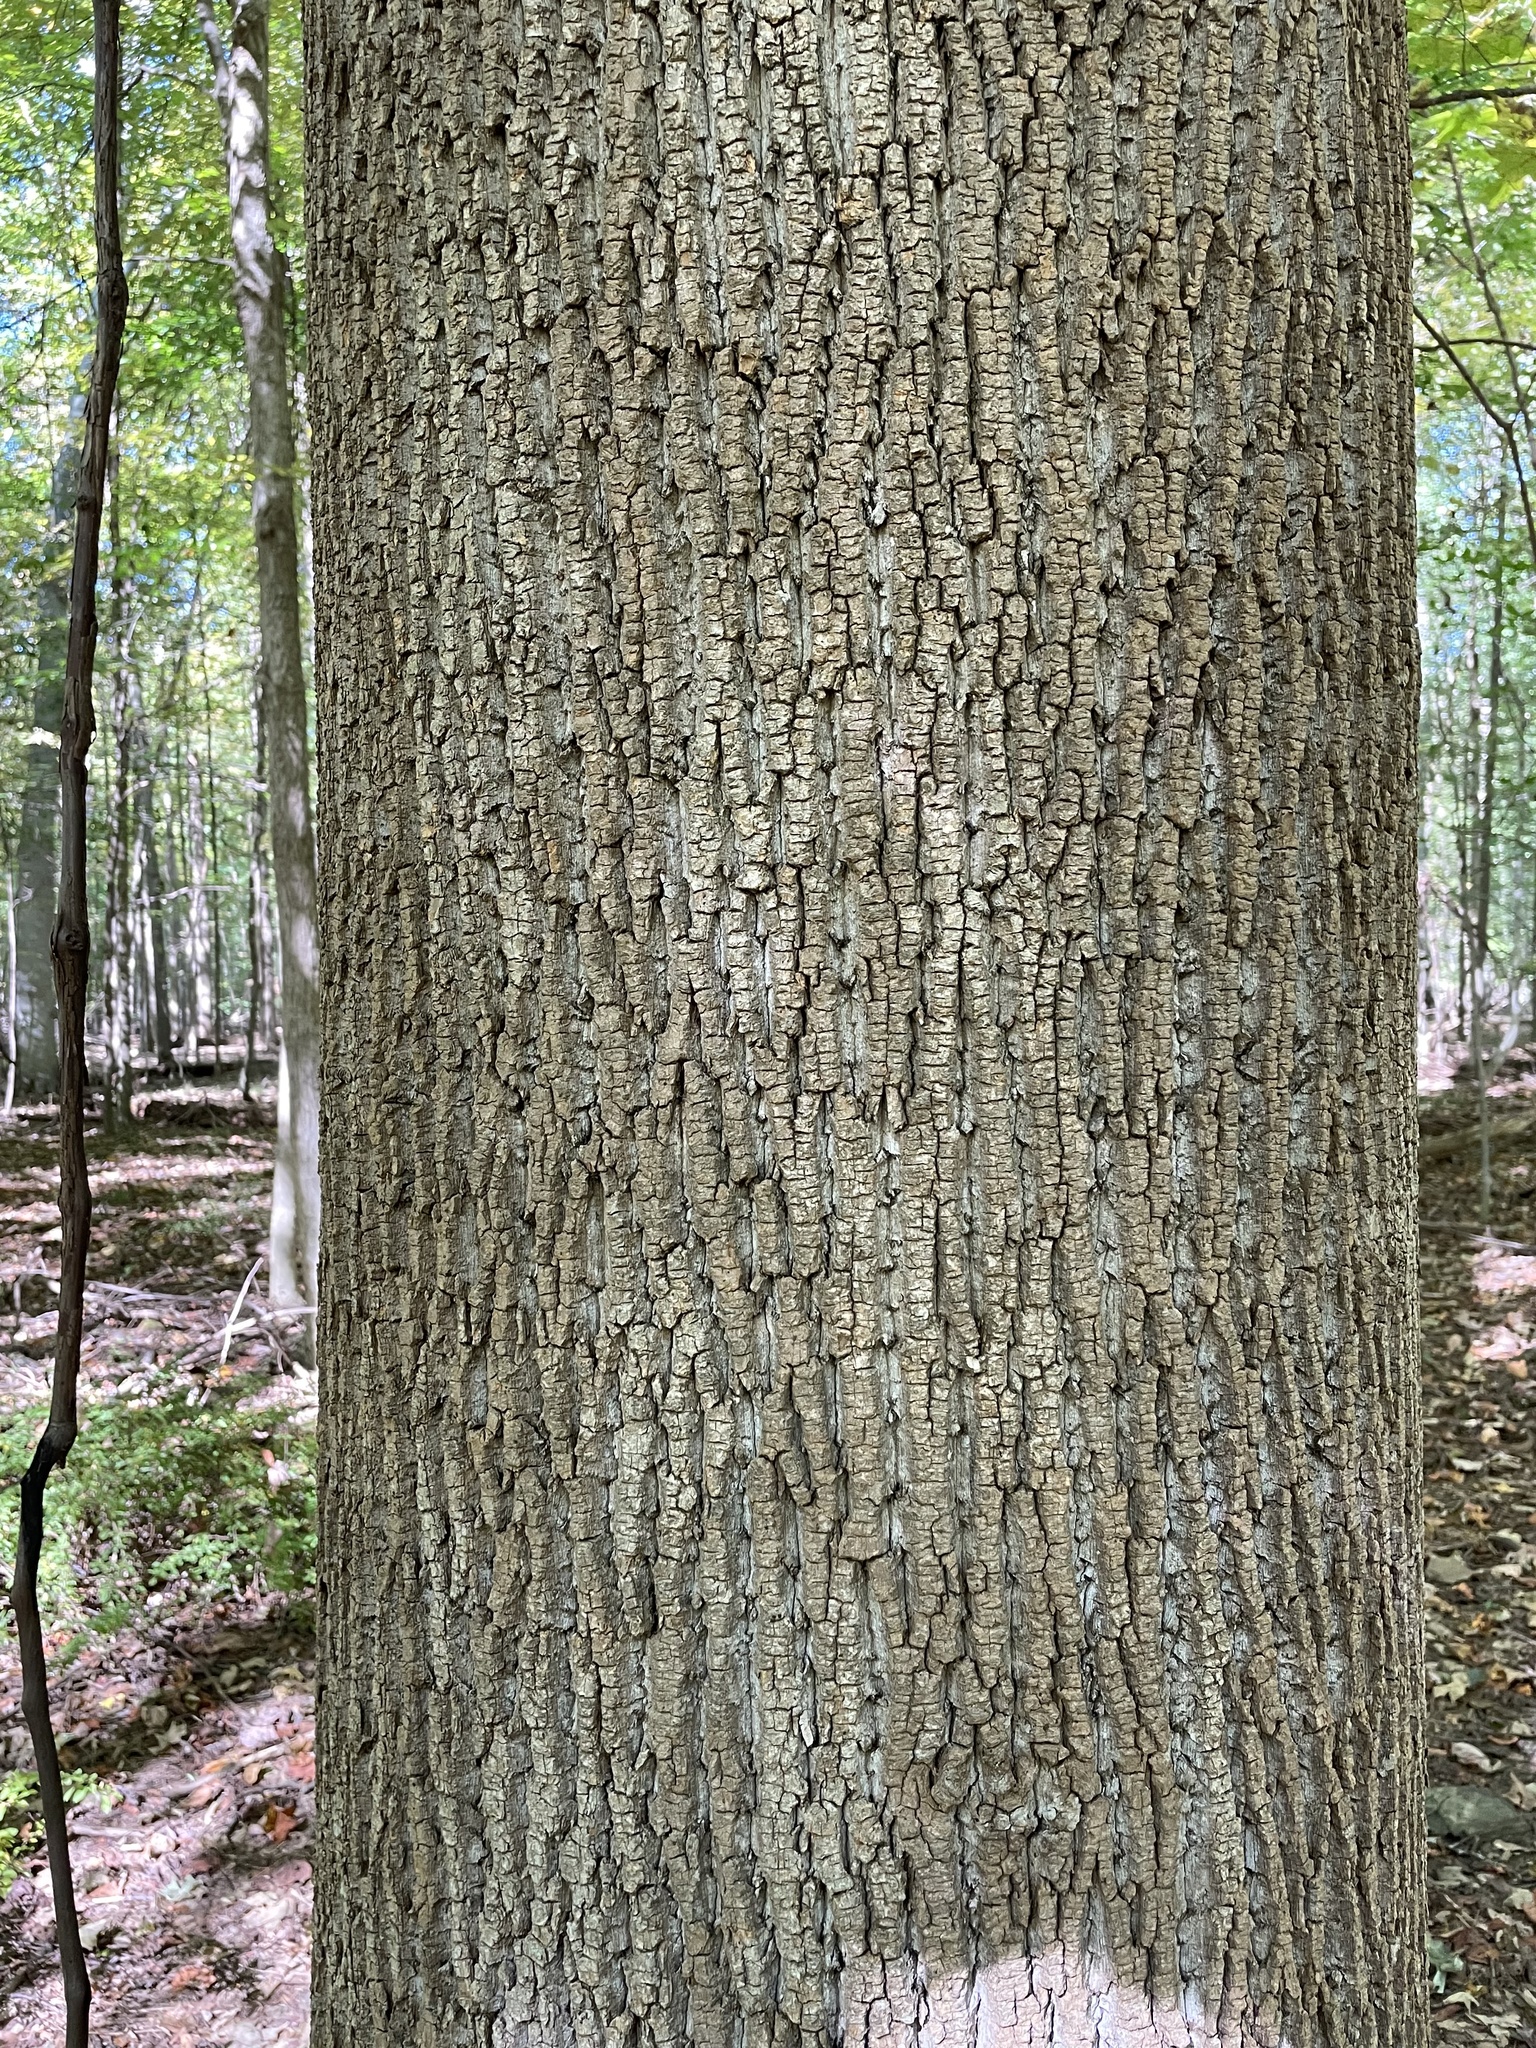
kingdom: Plantae
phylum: Tracheophyta
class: Magnoliopsida
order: Magnoliales
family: Magnoliaceae
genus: Liriodendron
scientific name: Liriodendron tulipifera
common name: Tulip tree
